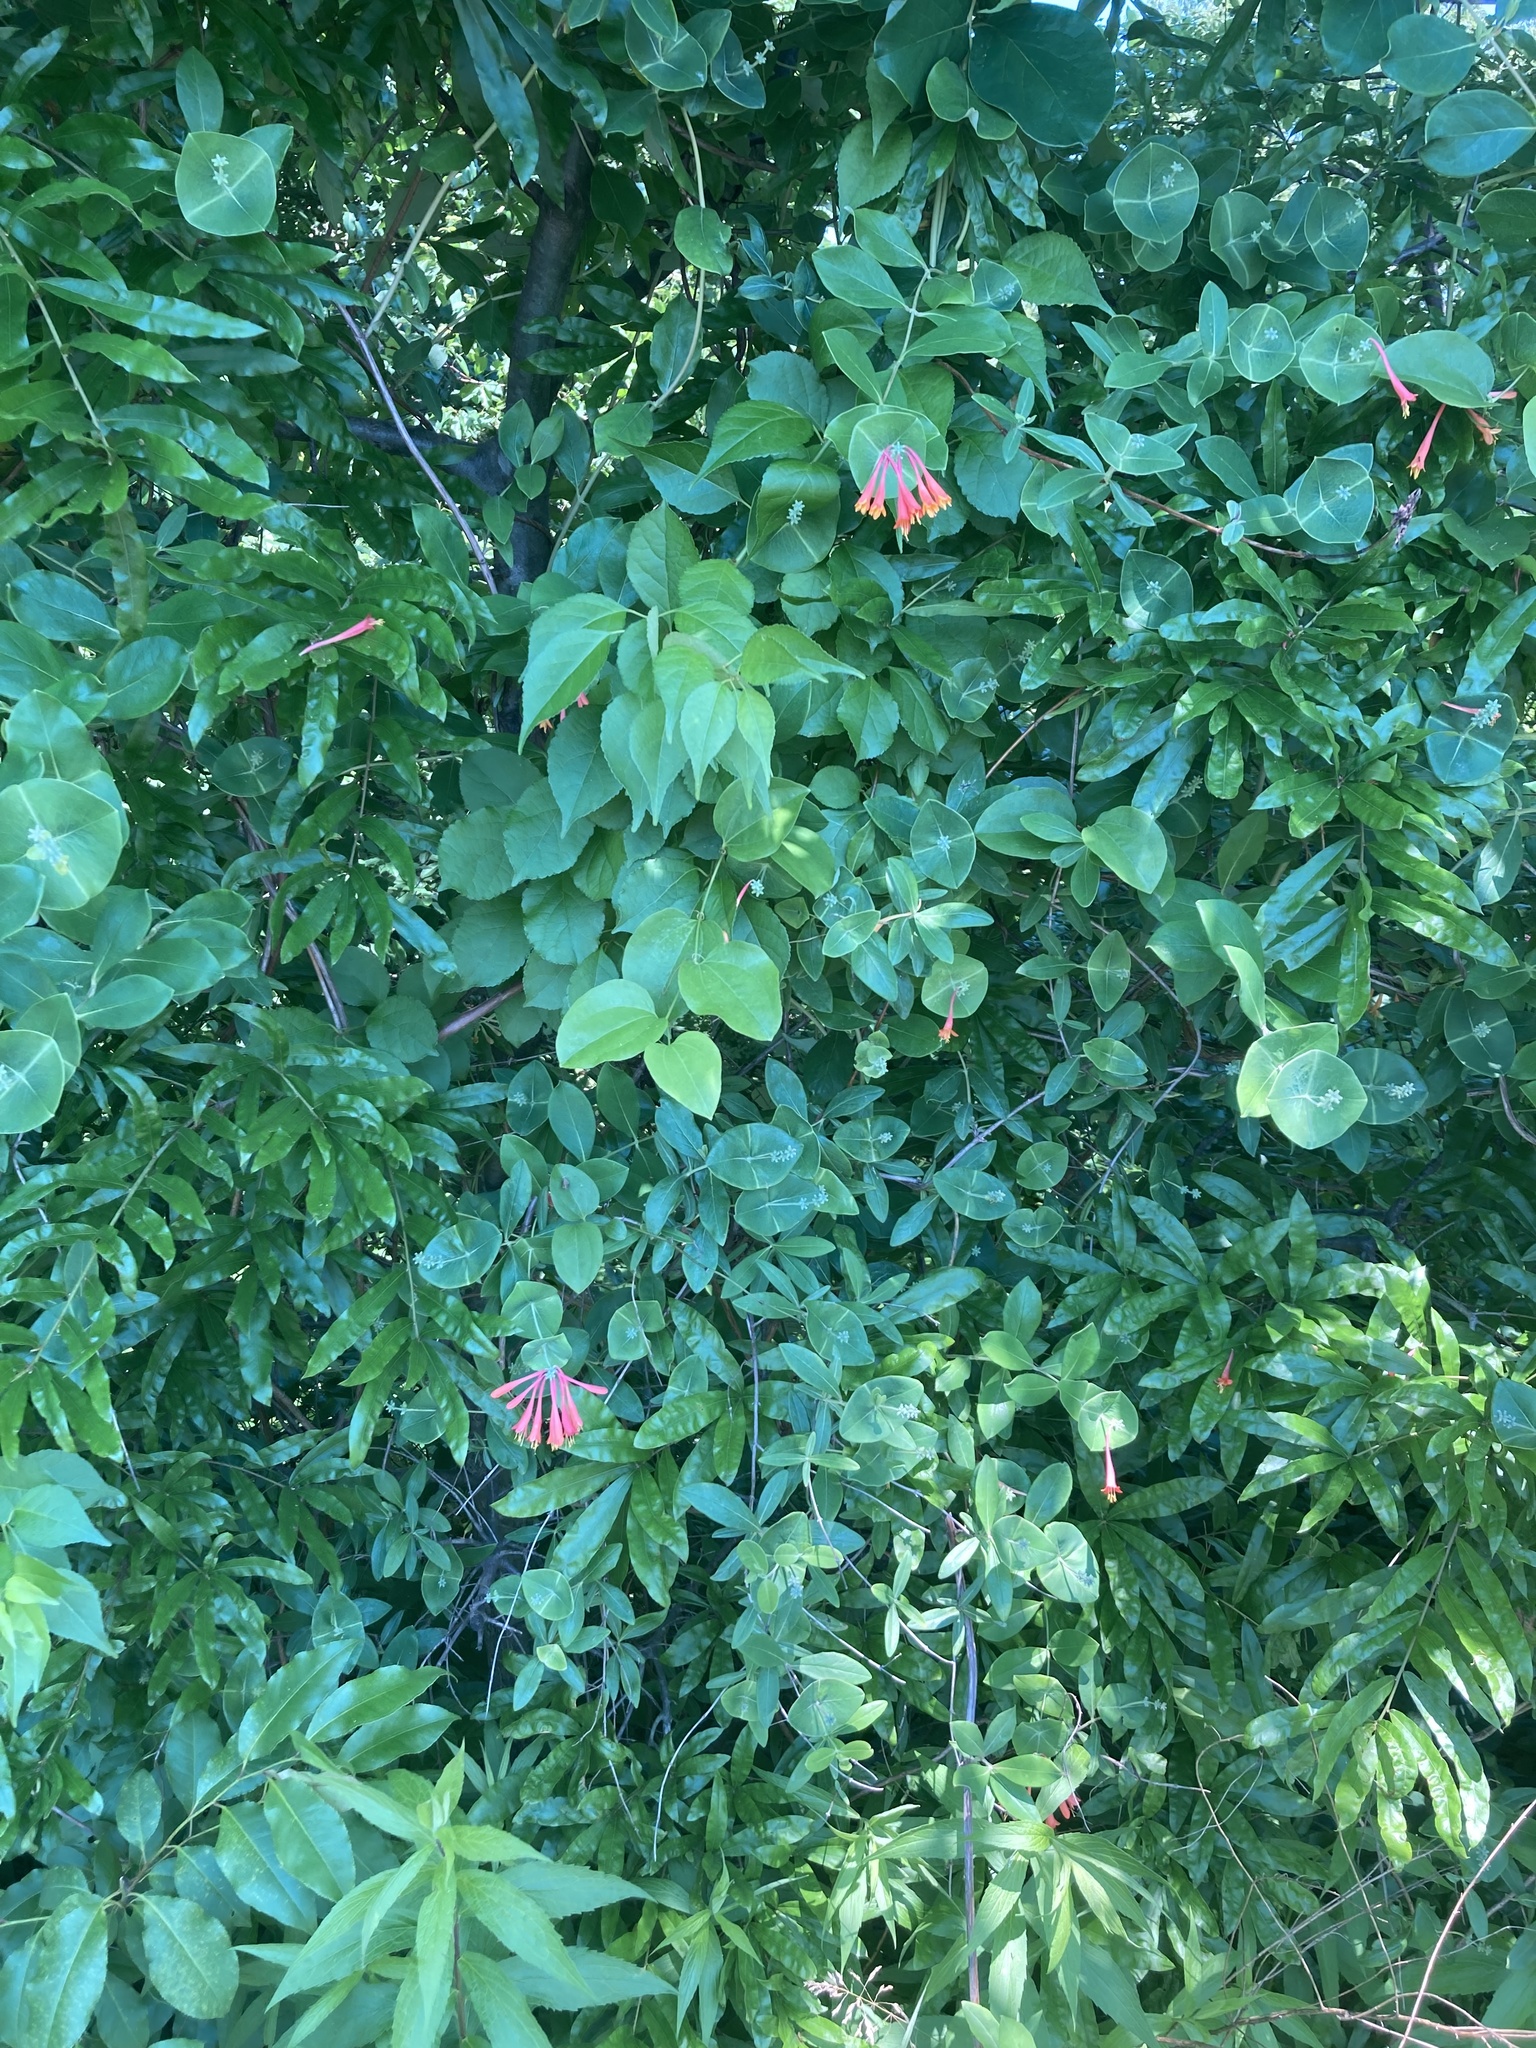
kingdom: Plantae
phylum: Tracheophyta
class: Magnoliopsida
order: Dipsacales
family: Caprifoliaceae
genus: Lonicera
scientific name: Lonicera sempervirens
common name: Coral honeysuckle
